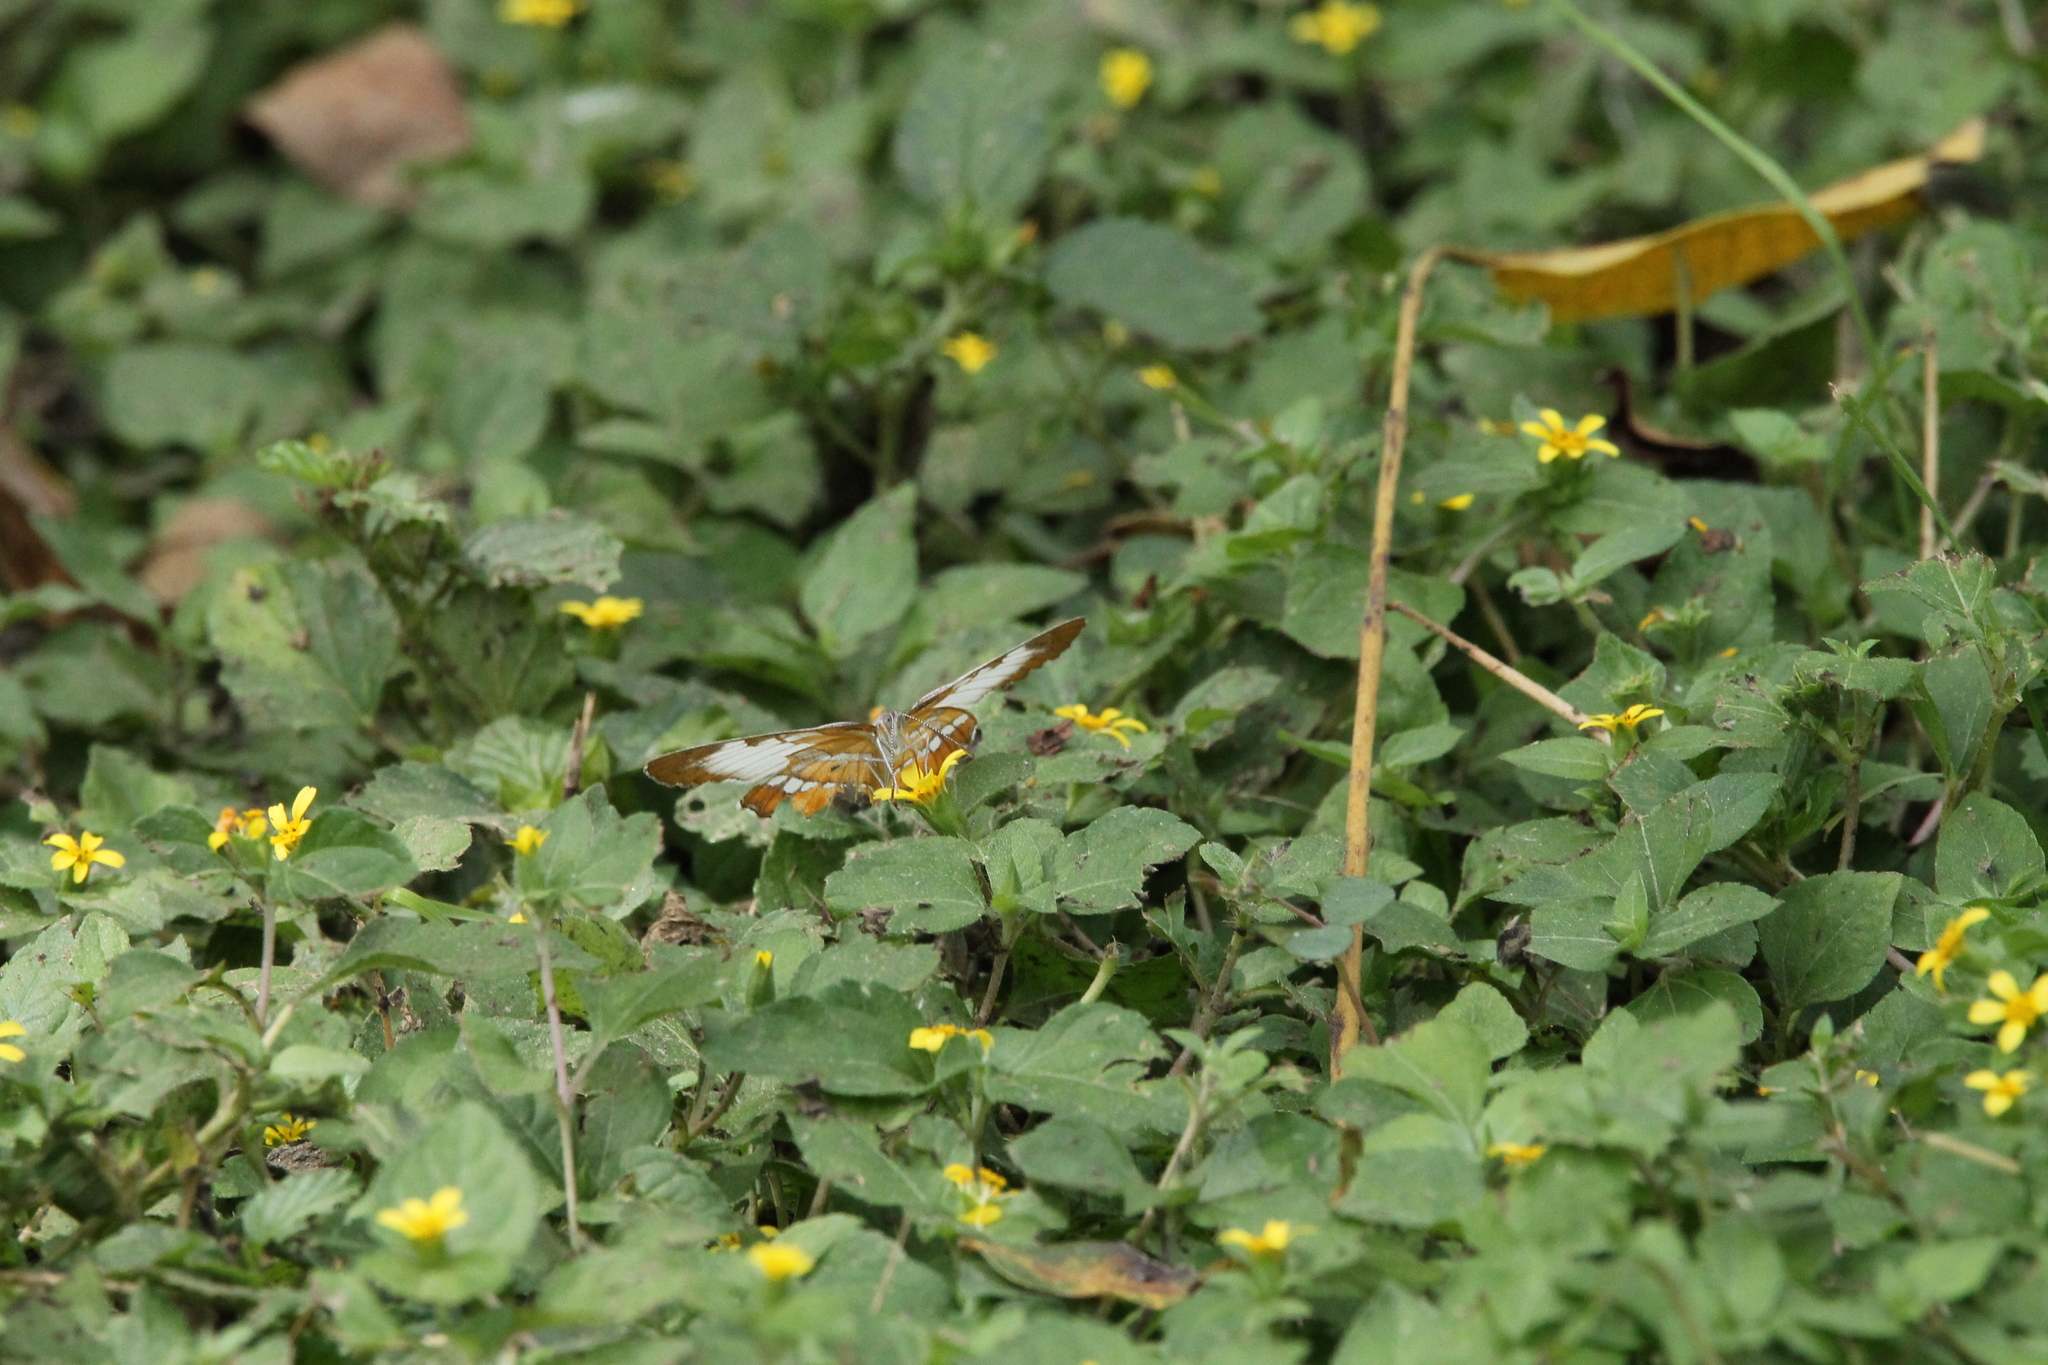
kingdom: Animalia
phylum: Arthropoda
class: Insecta
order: Lepidoptera
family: Nymphalidae
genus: Mestra
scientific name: Mestra amymone
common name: Common mestra
